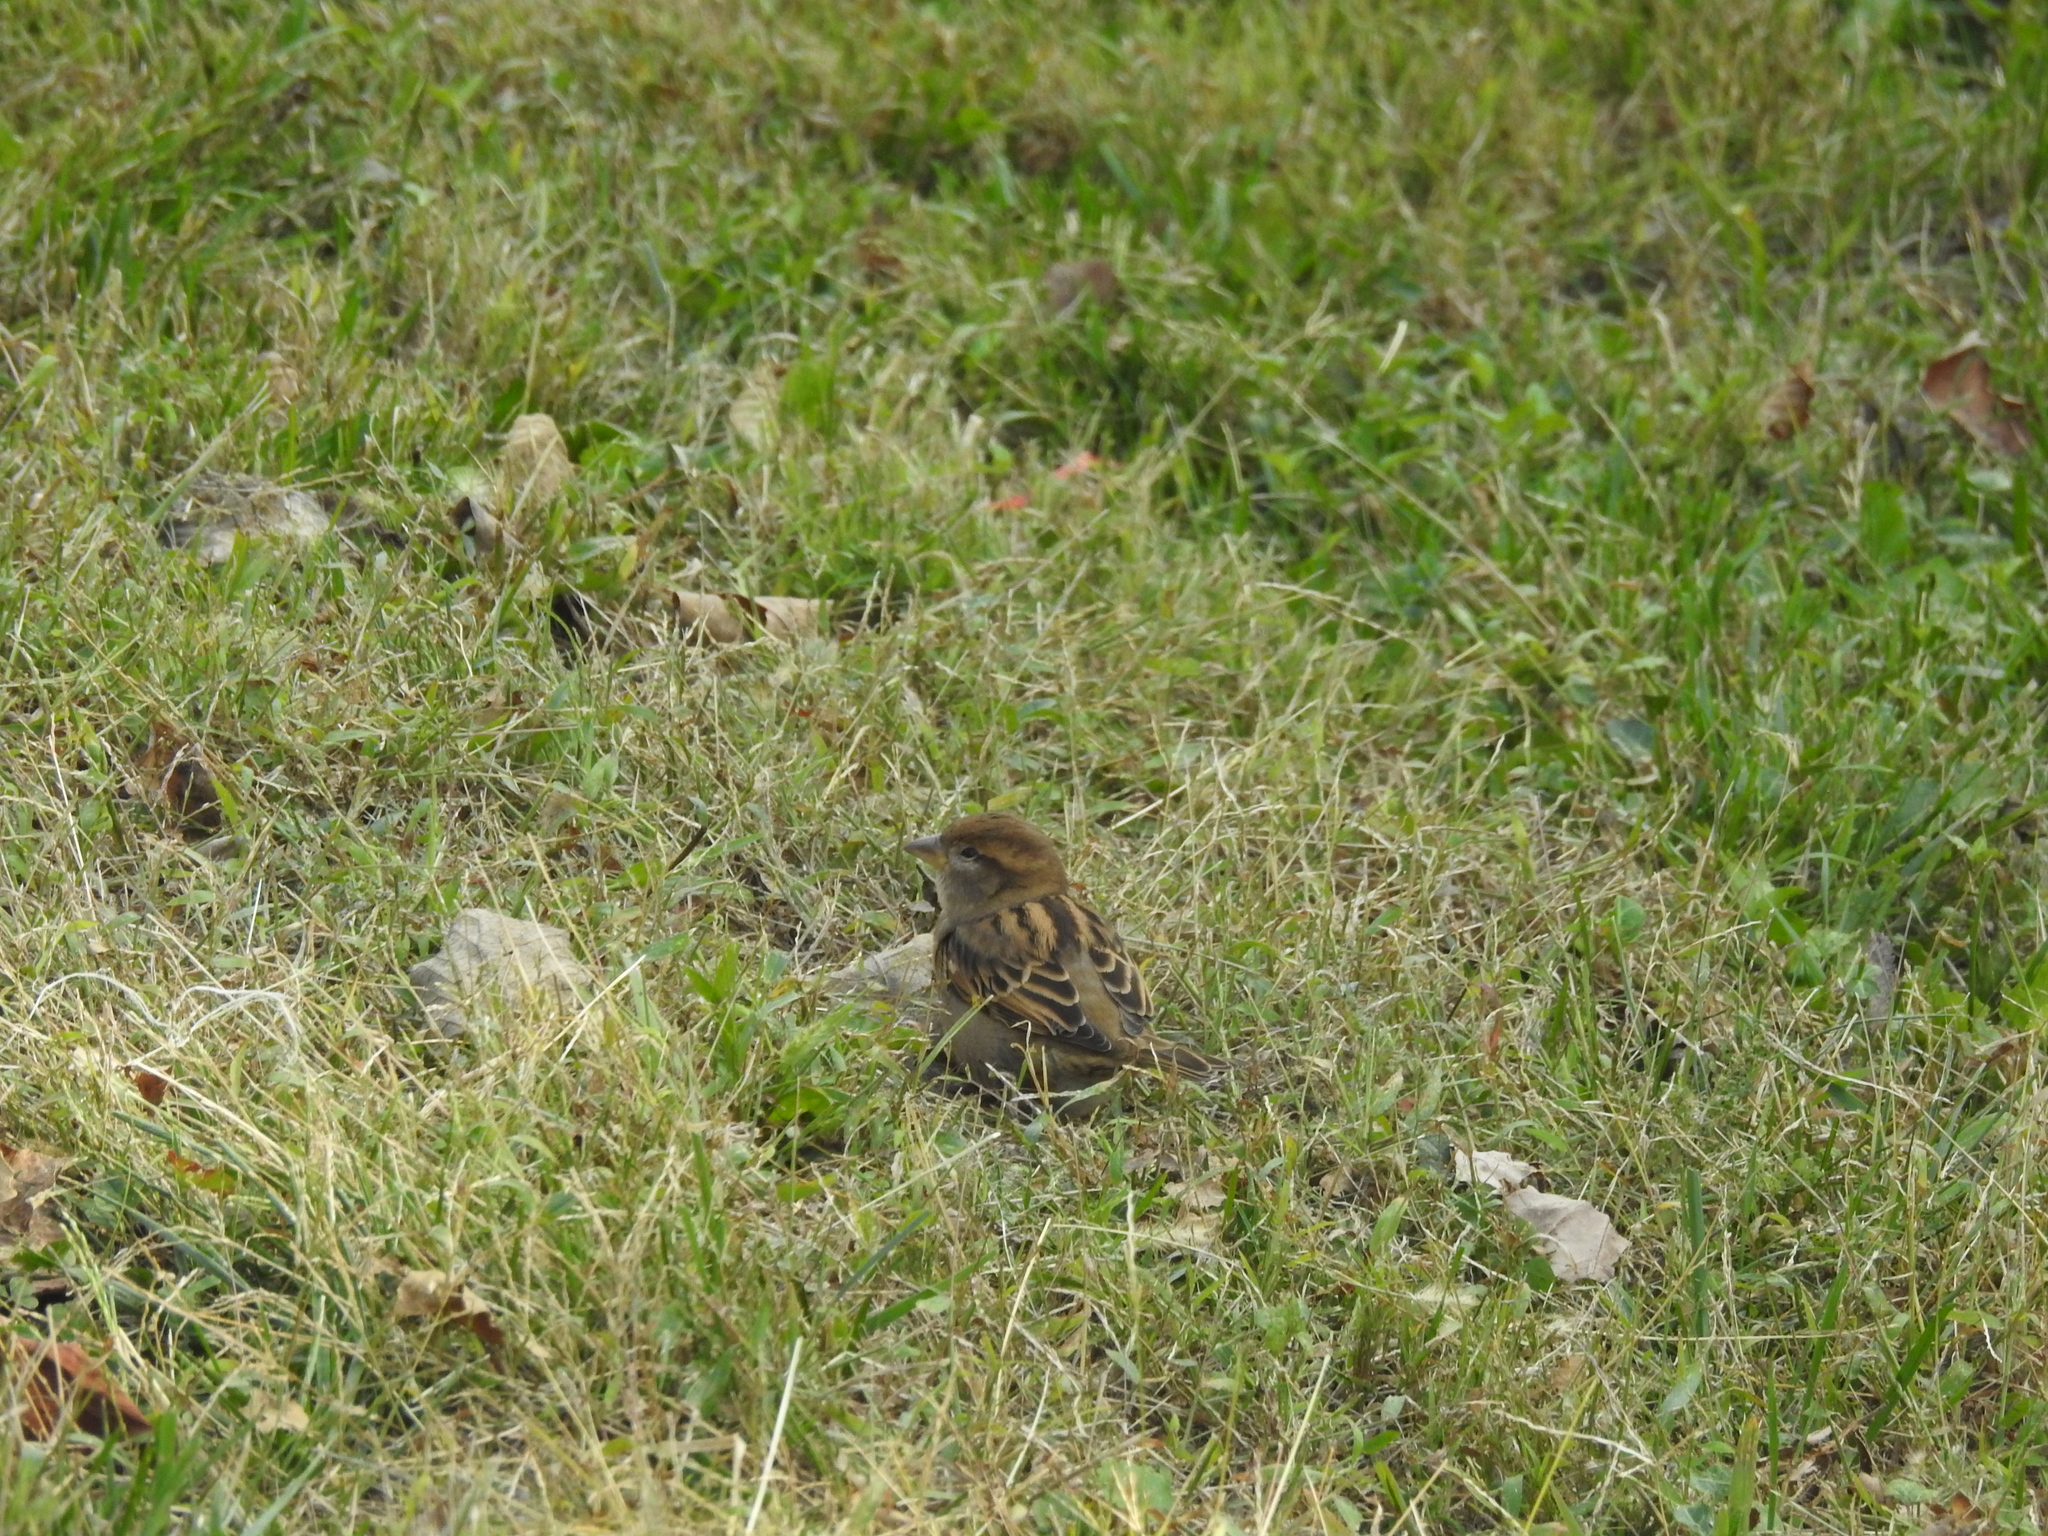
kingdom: Animalia
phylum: Chordata
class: Aves
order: Passeriformes
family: Passeridae
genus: Passer
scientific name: Passer domesticus
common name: House sparrow
